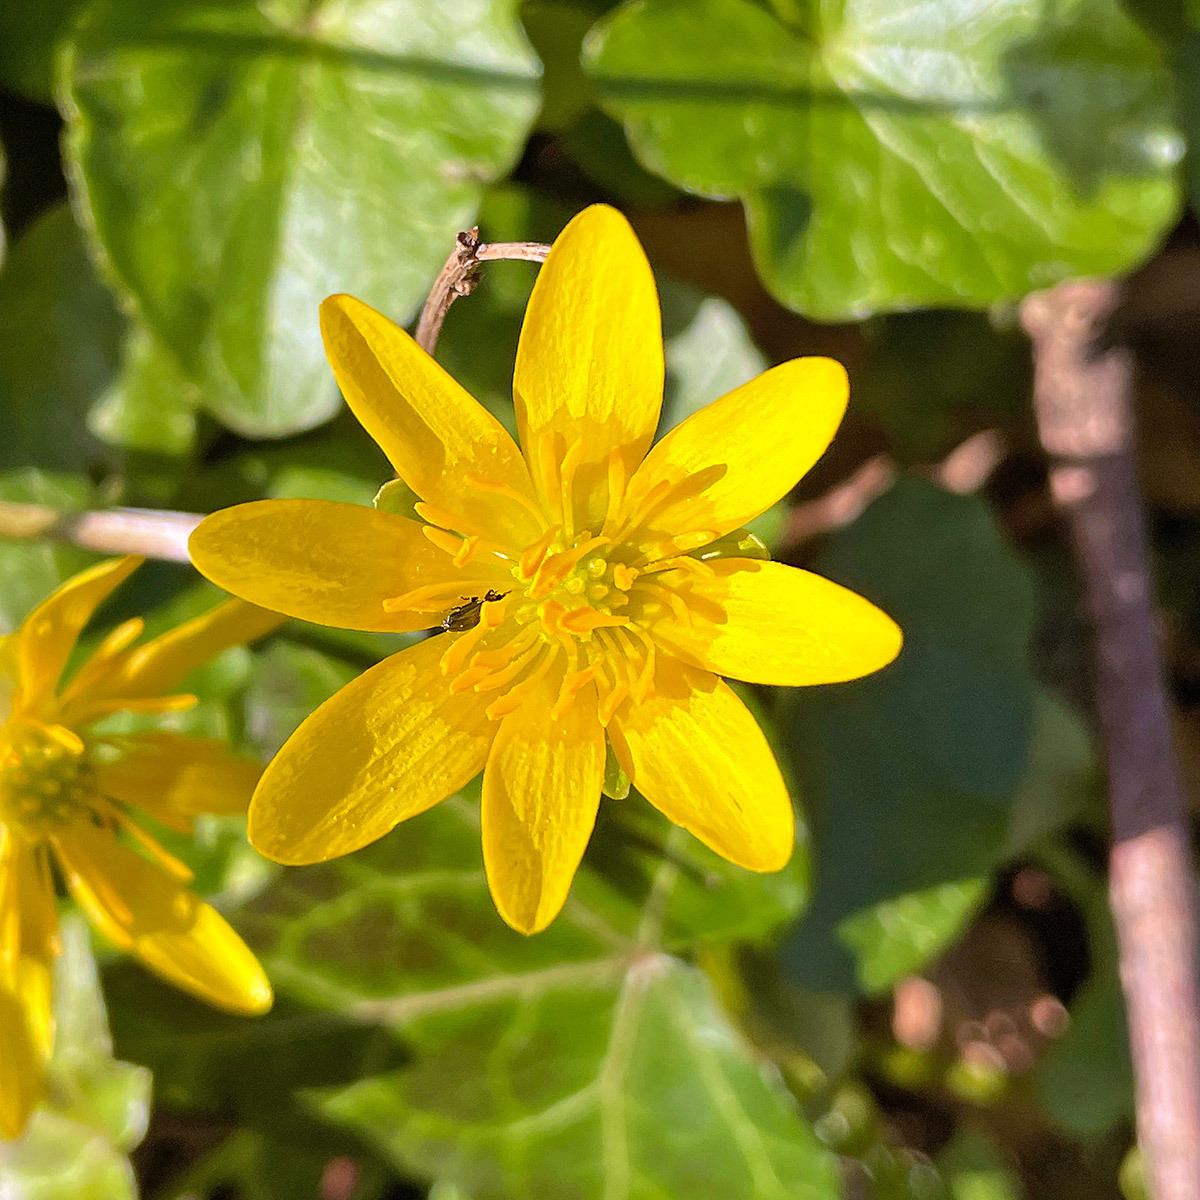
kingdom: Plantae
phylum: Tracheophyta
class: Magnoliopsida
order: Ranunculales
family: Ranunculaceae
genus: Ficaria
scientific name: Ficaria verna
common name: Lesser celandine
